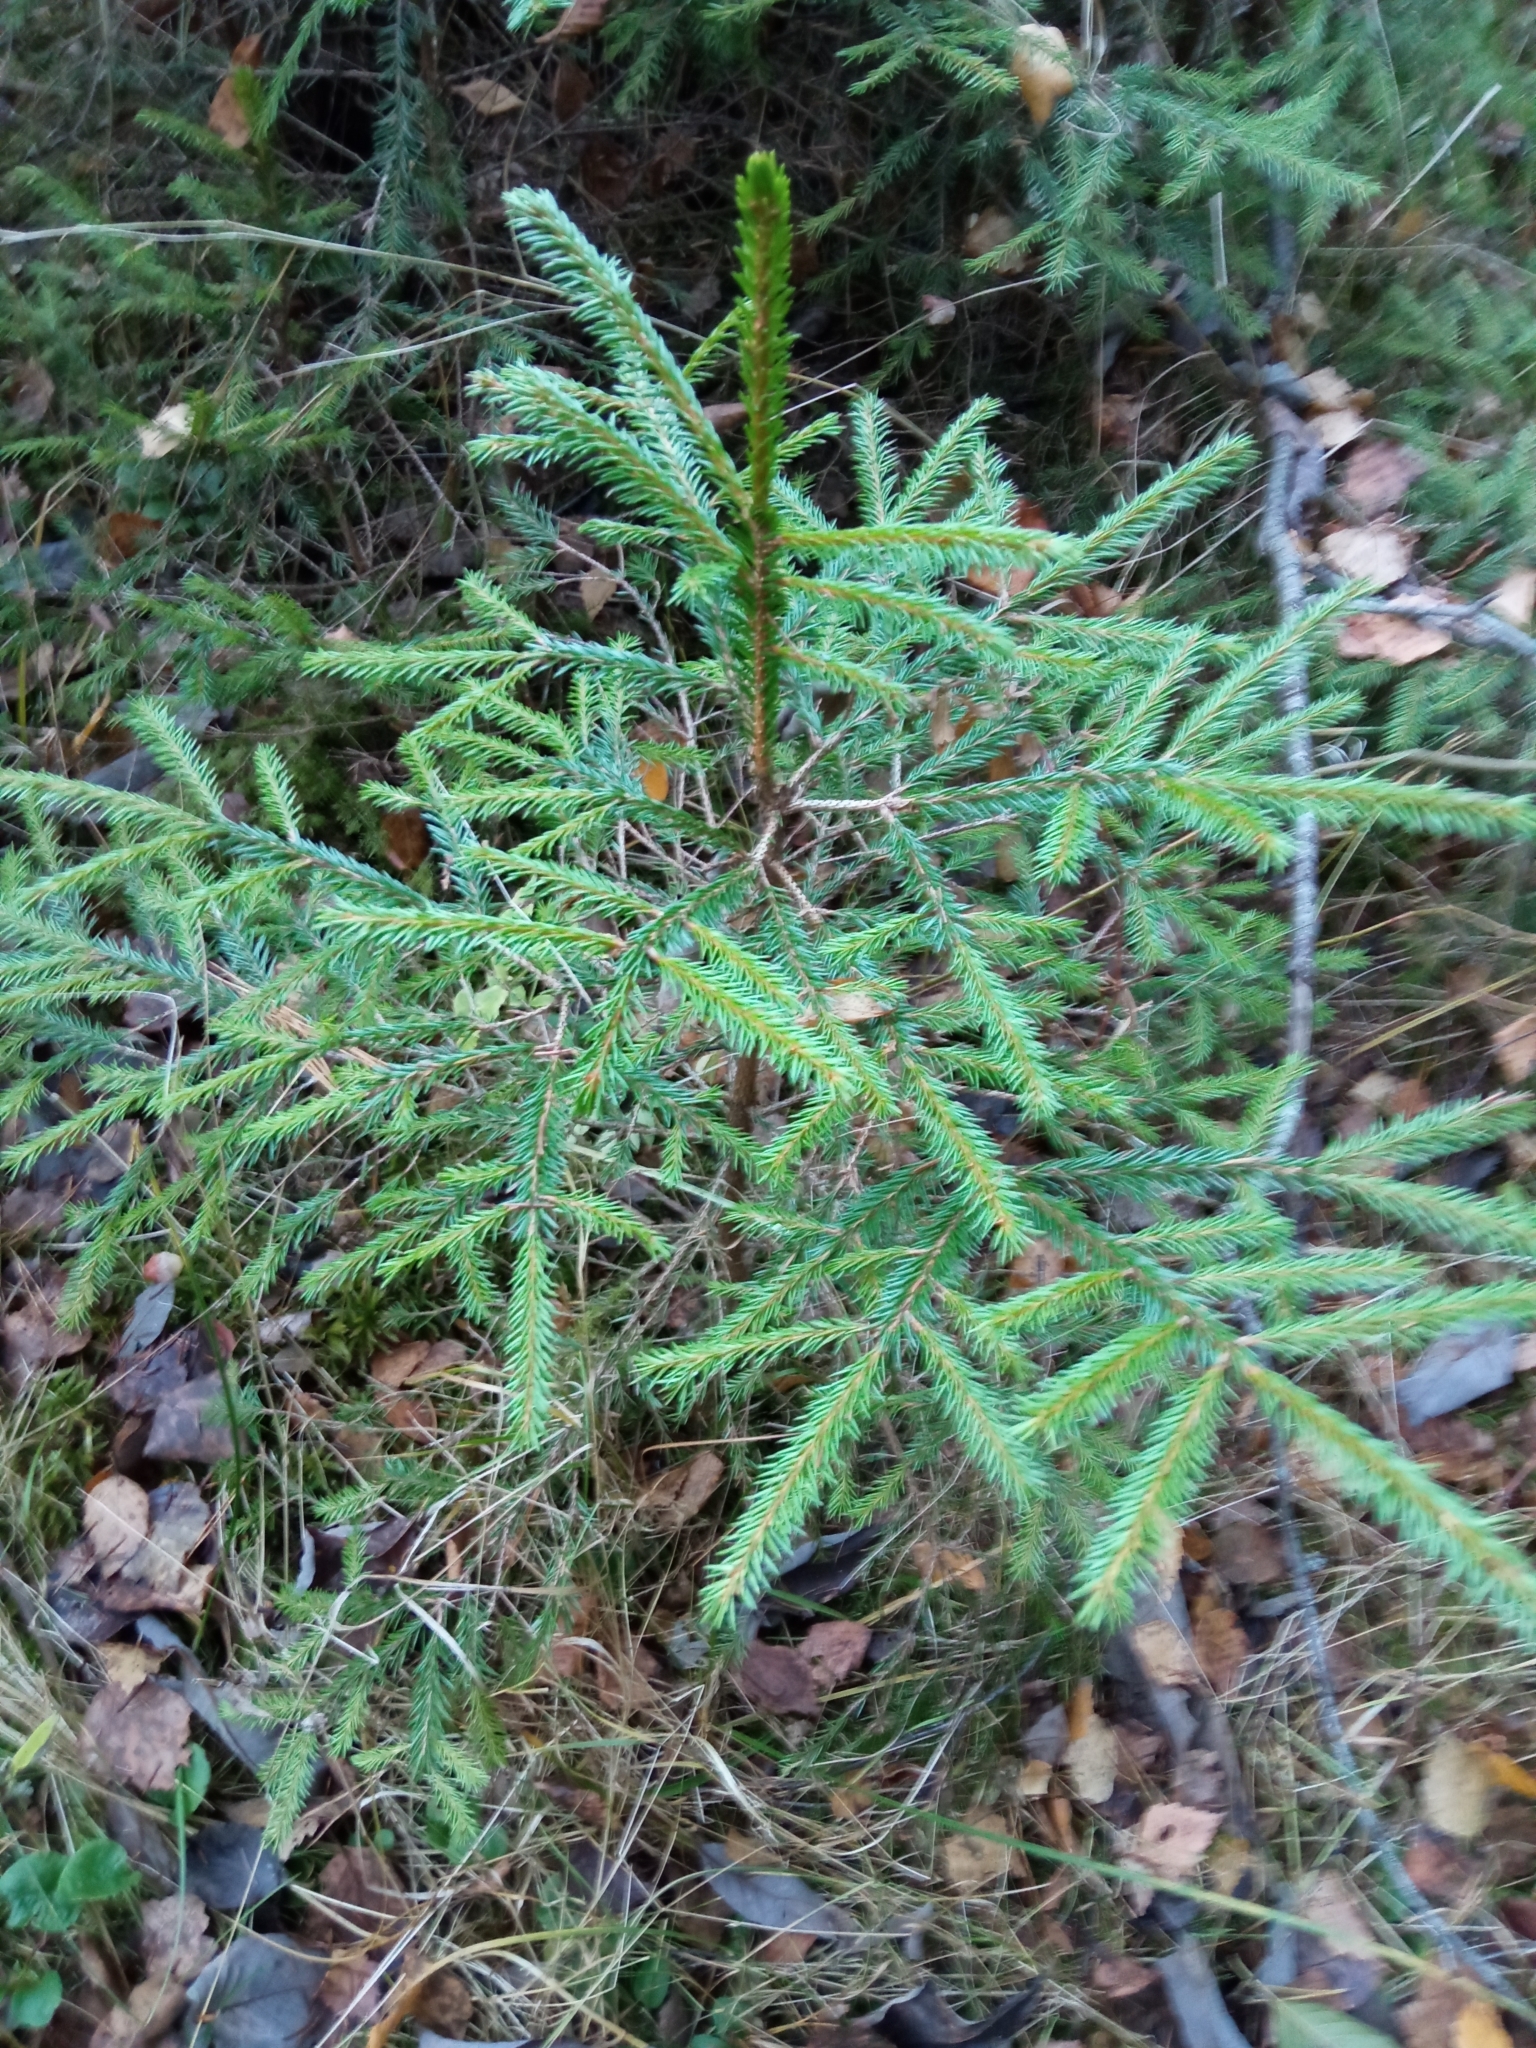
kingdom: Plantae
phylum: Tracheophyta
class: Pinopsida
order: Pinales
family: Pinaceae
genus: Picea
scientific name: Picea abies
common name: Norway spruce
